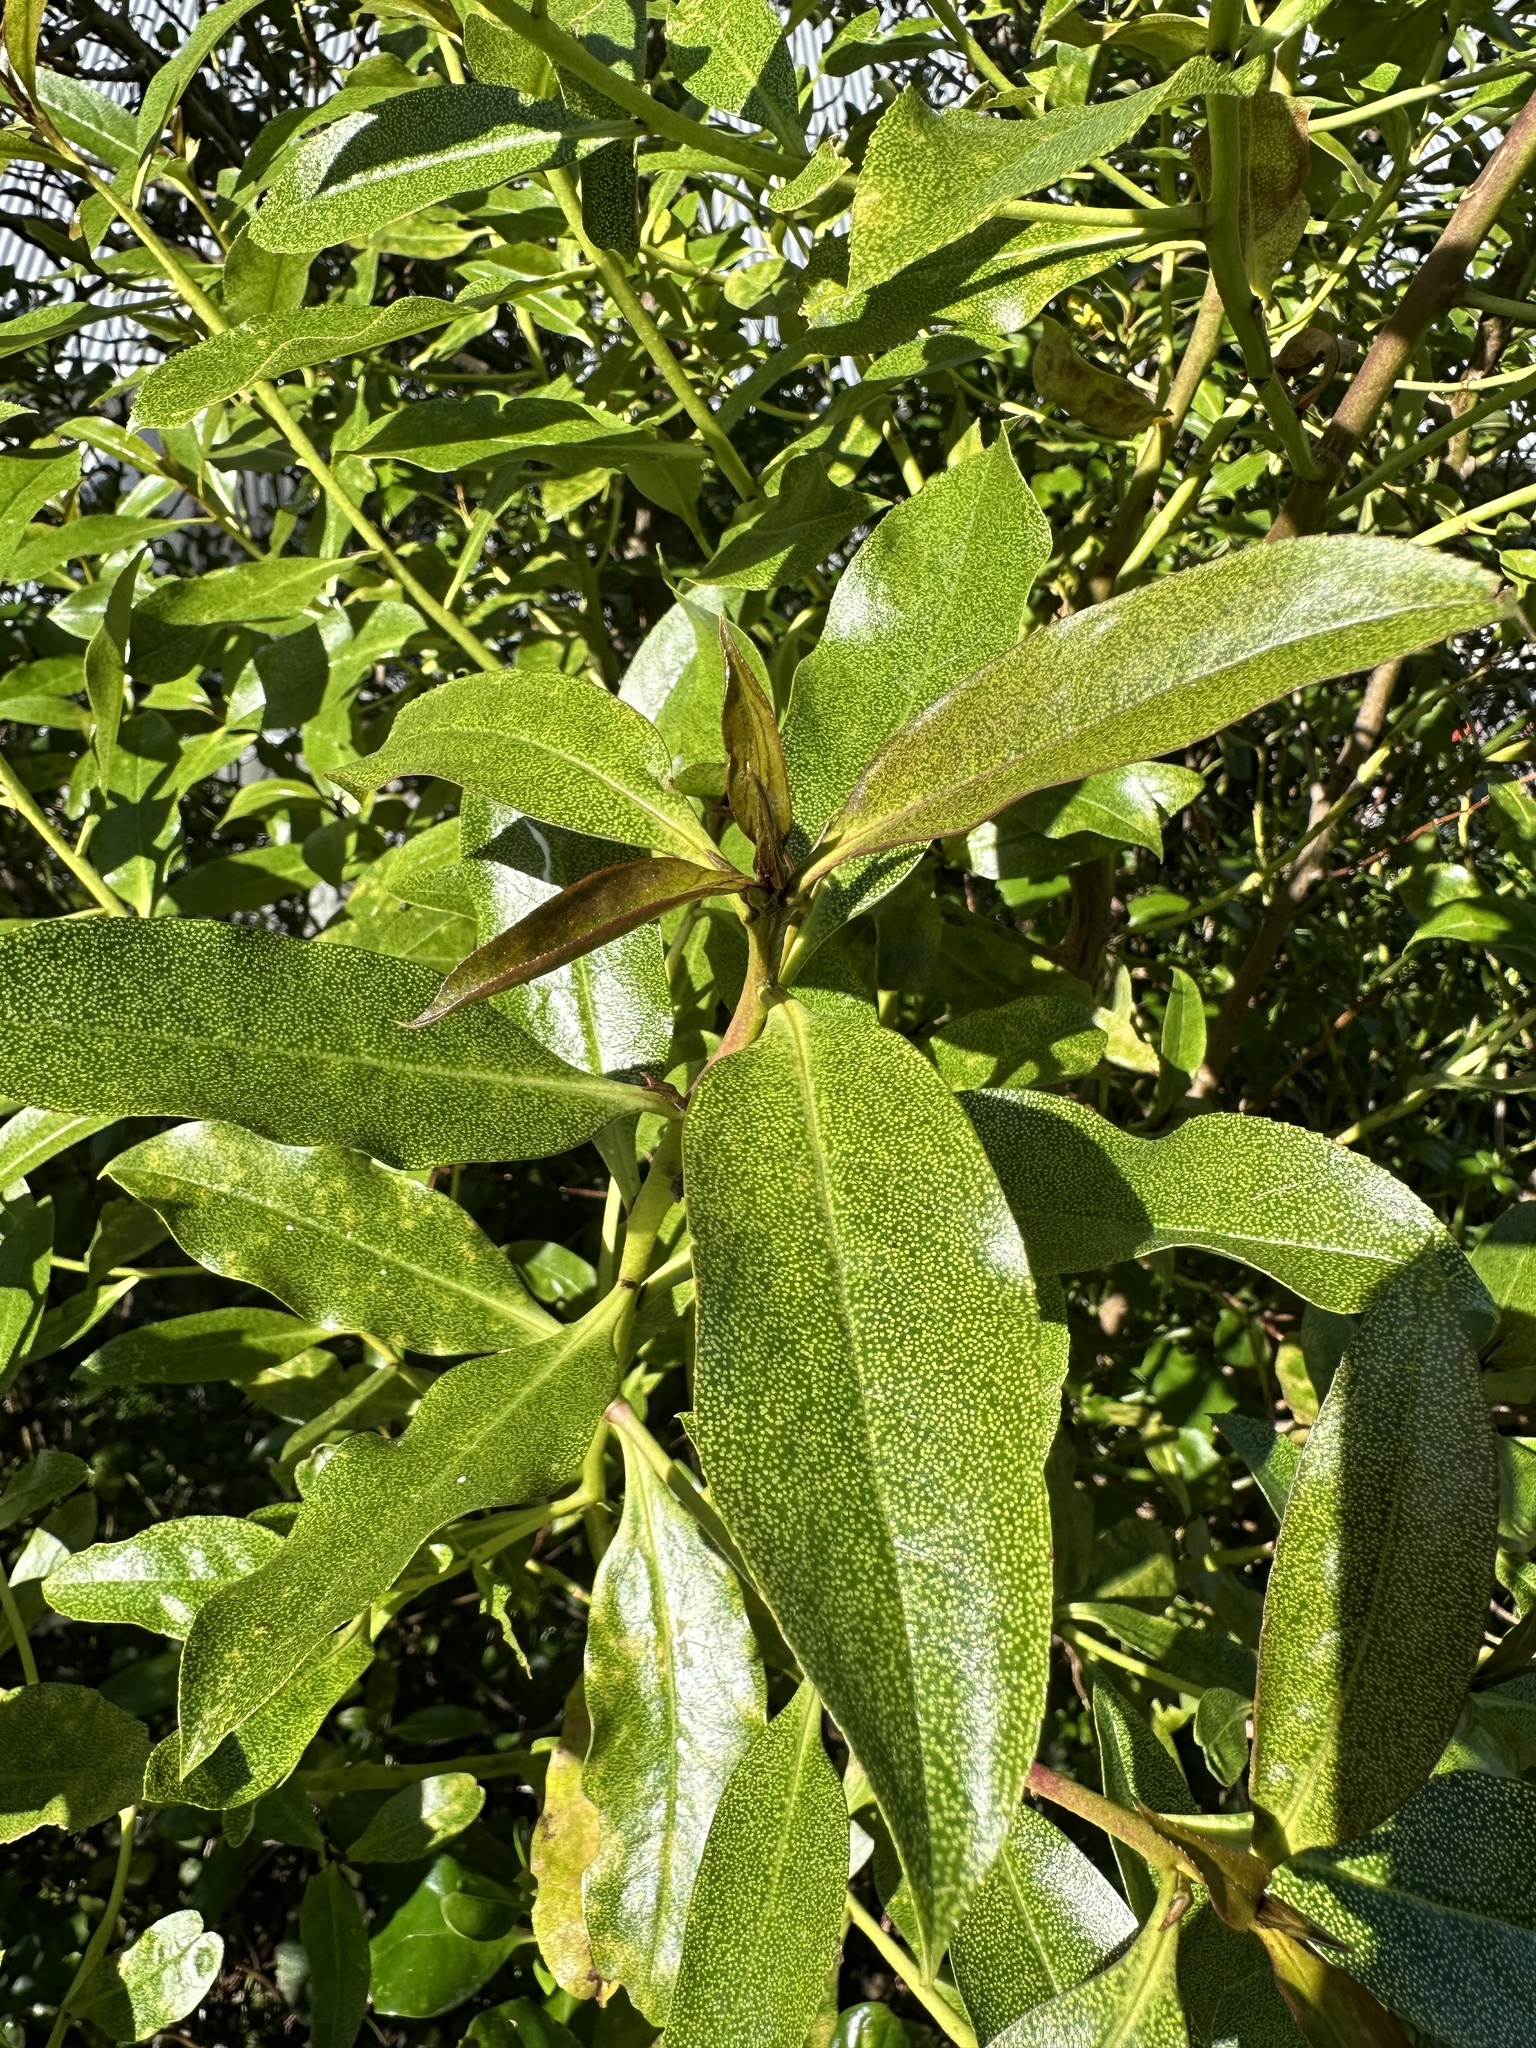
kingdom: Plantae
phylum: Tracheophyta
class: Magnoliopsida
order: Lamiales
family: Scrophulariaceae
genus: Myoporum
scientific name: Myoporum laetum
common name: Ngaio tree
